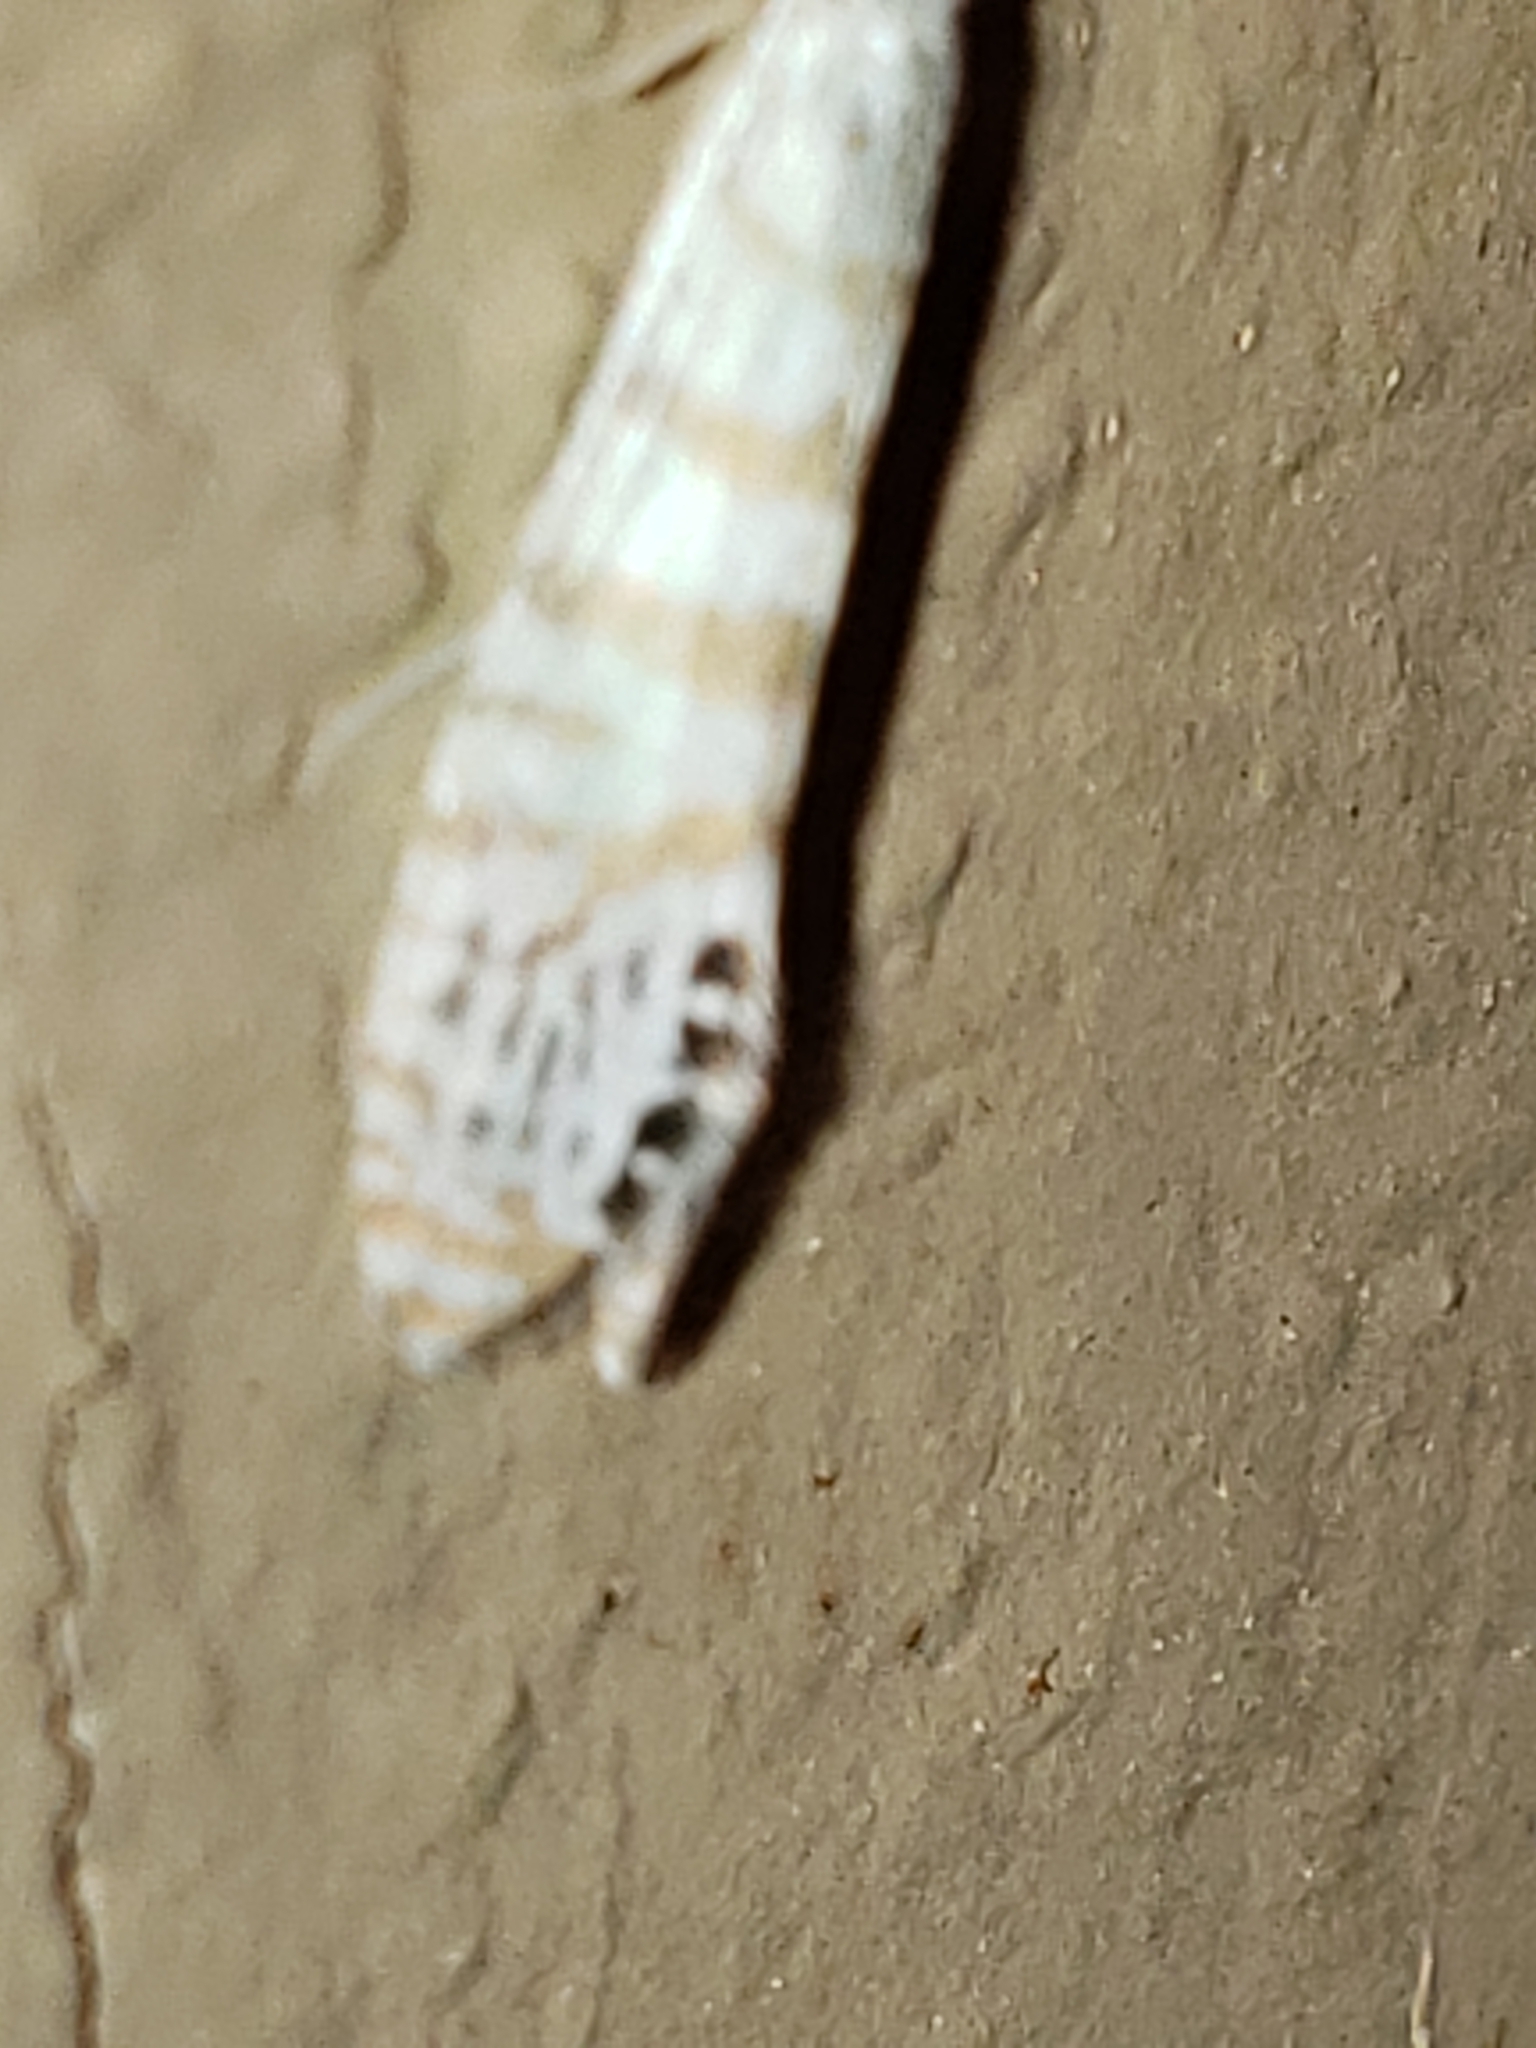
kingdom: Animalia
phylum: Arthropoda
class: Insecta
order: Trichoptera
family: Leptoceridae
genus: Nectopsyche
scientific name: Nectopsyche exquisita
